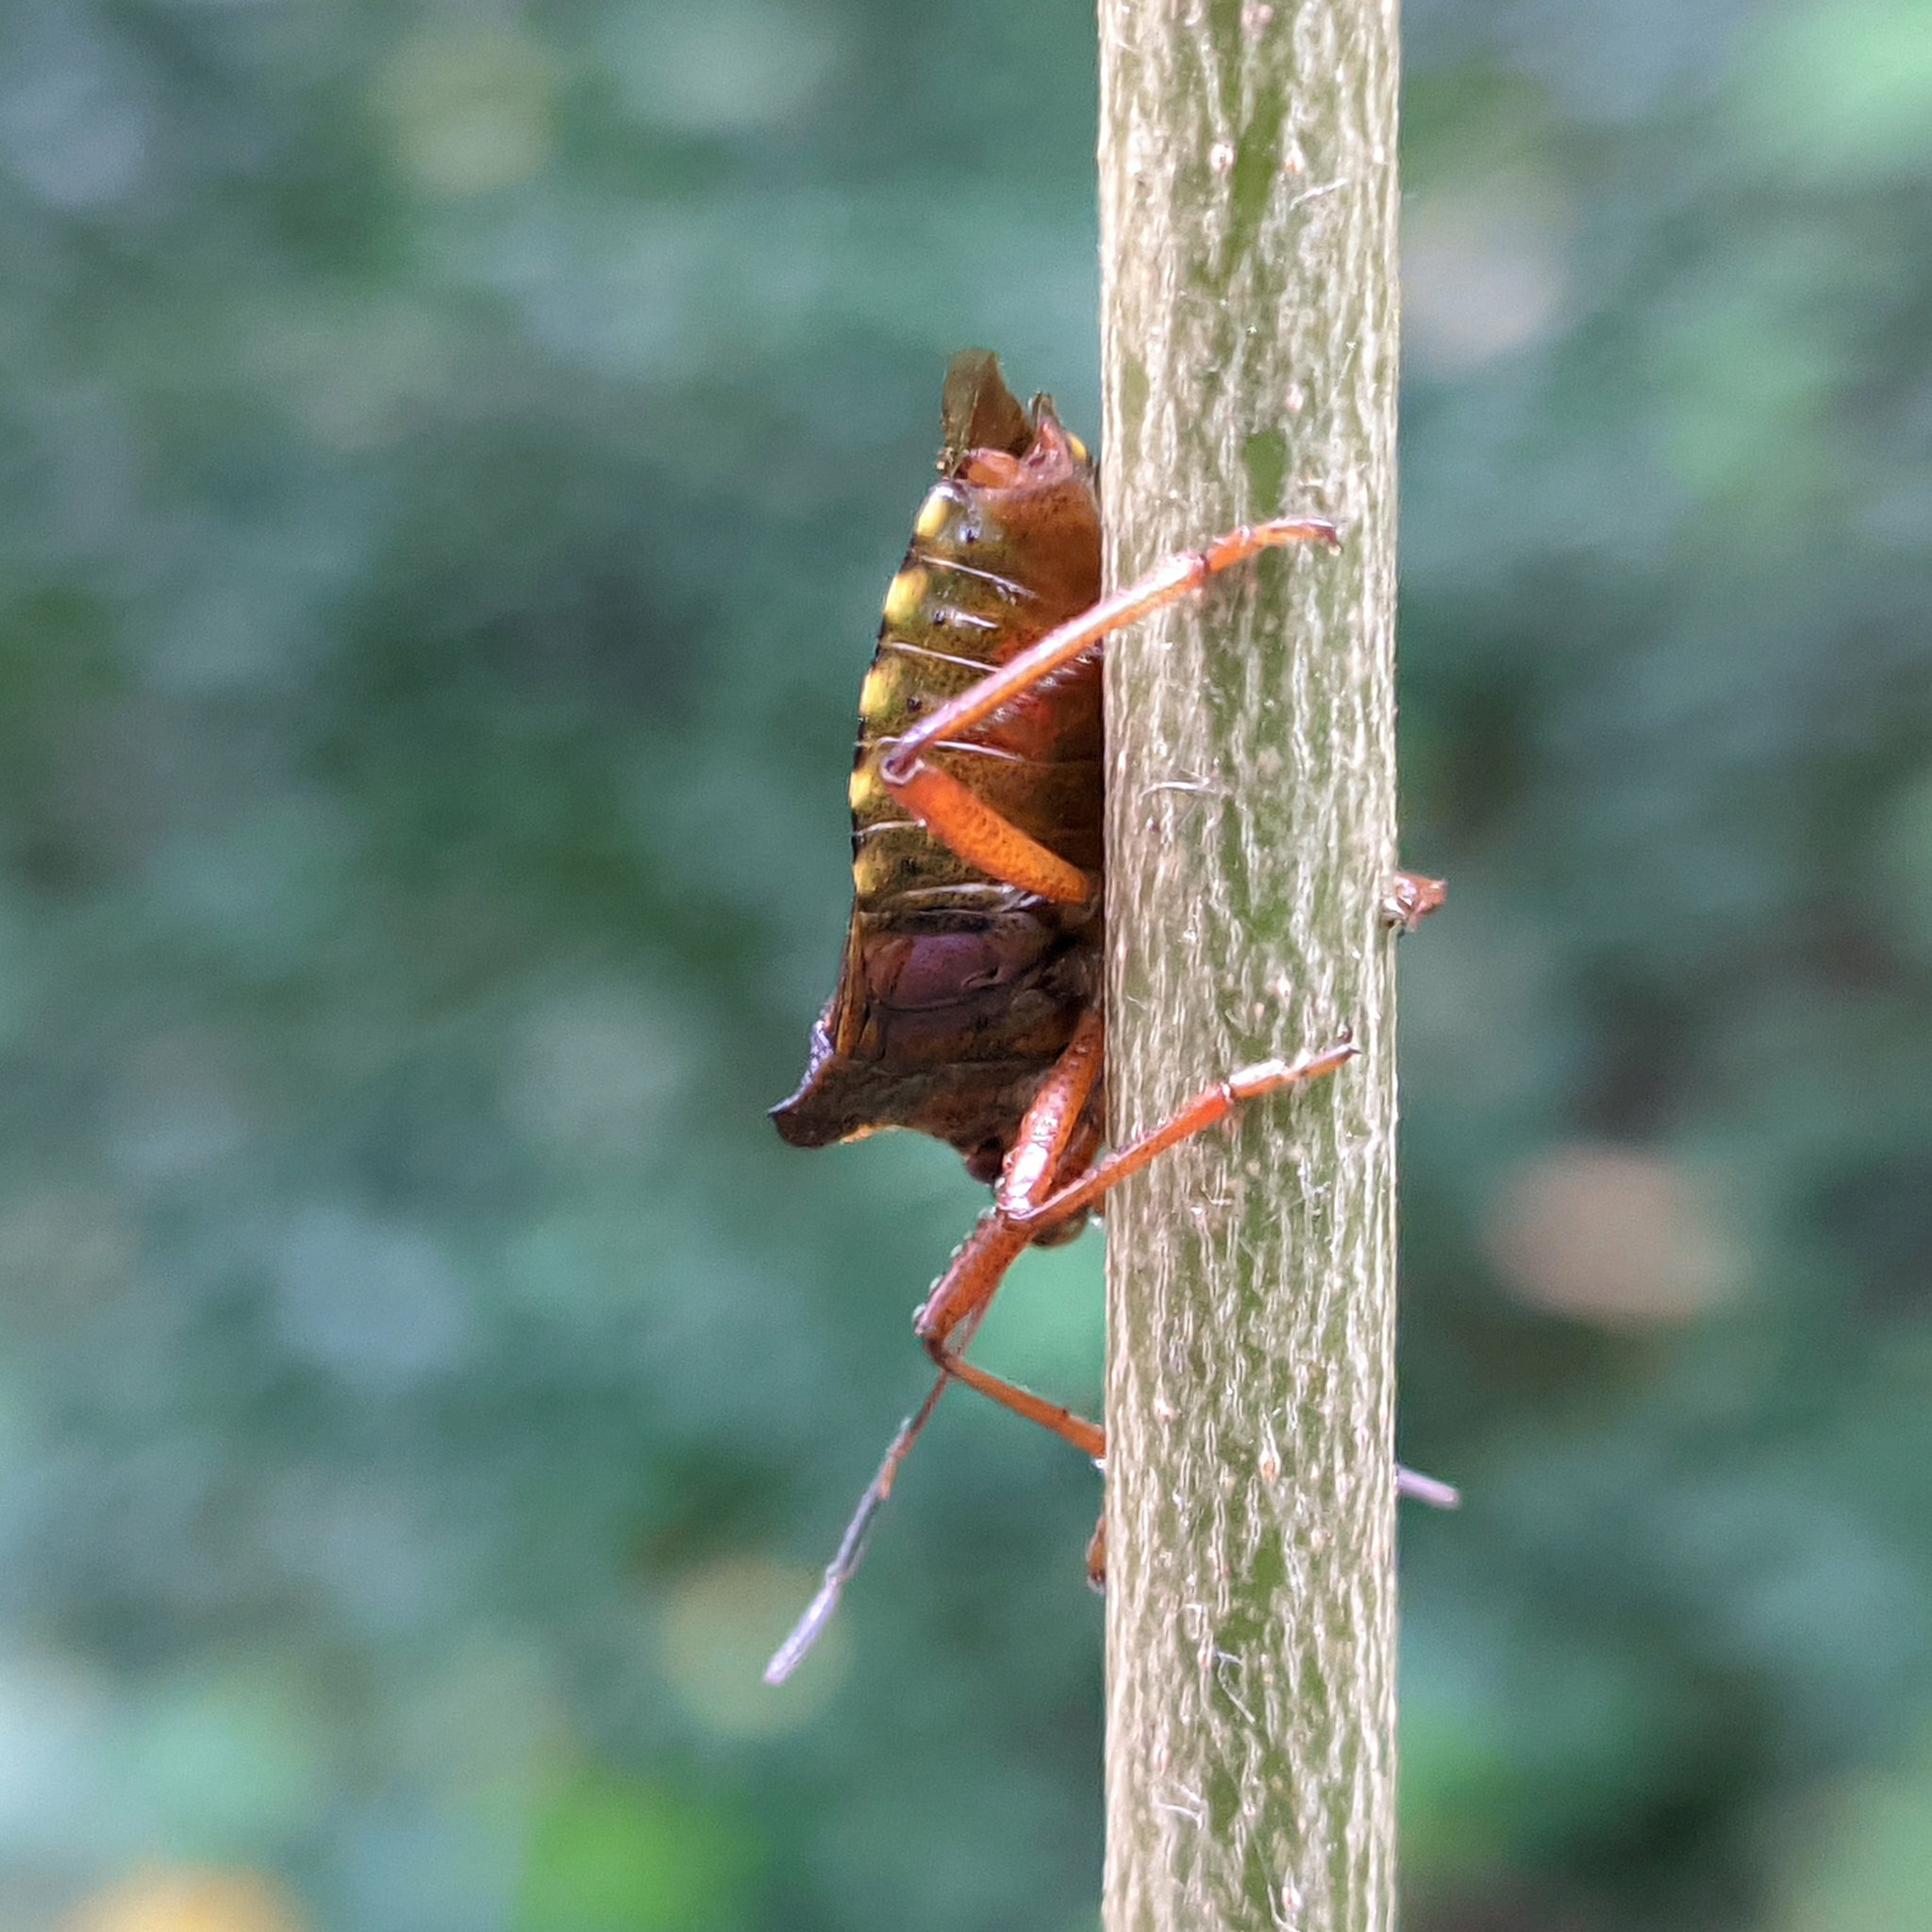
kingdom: Animalia
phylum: Arthropoda
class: Insecta
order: Hemiptera
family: Pentatomidae
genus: Pentatoma
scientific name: Pentatoma rufipes
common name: Forest bug
